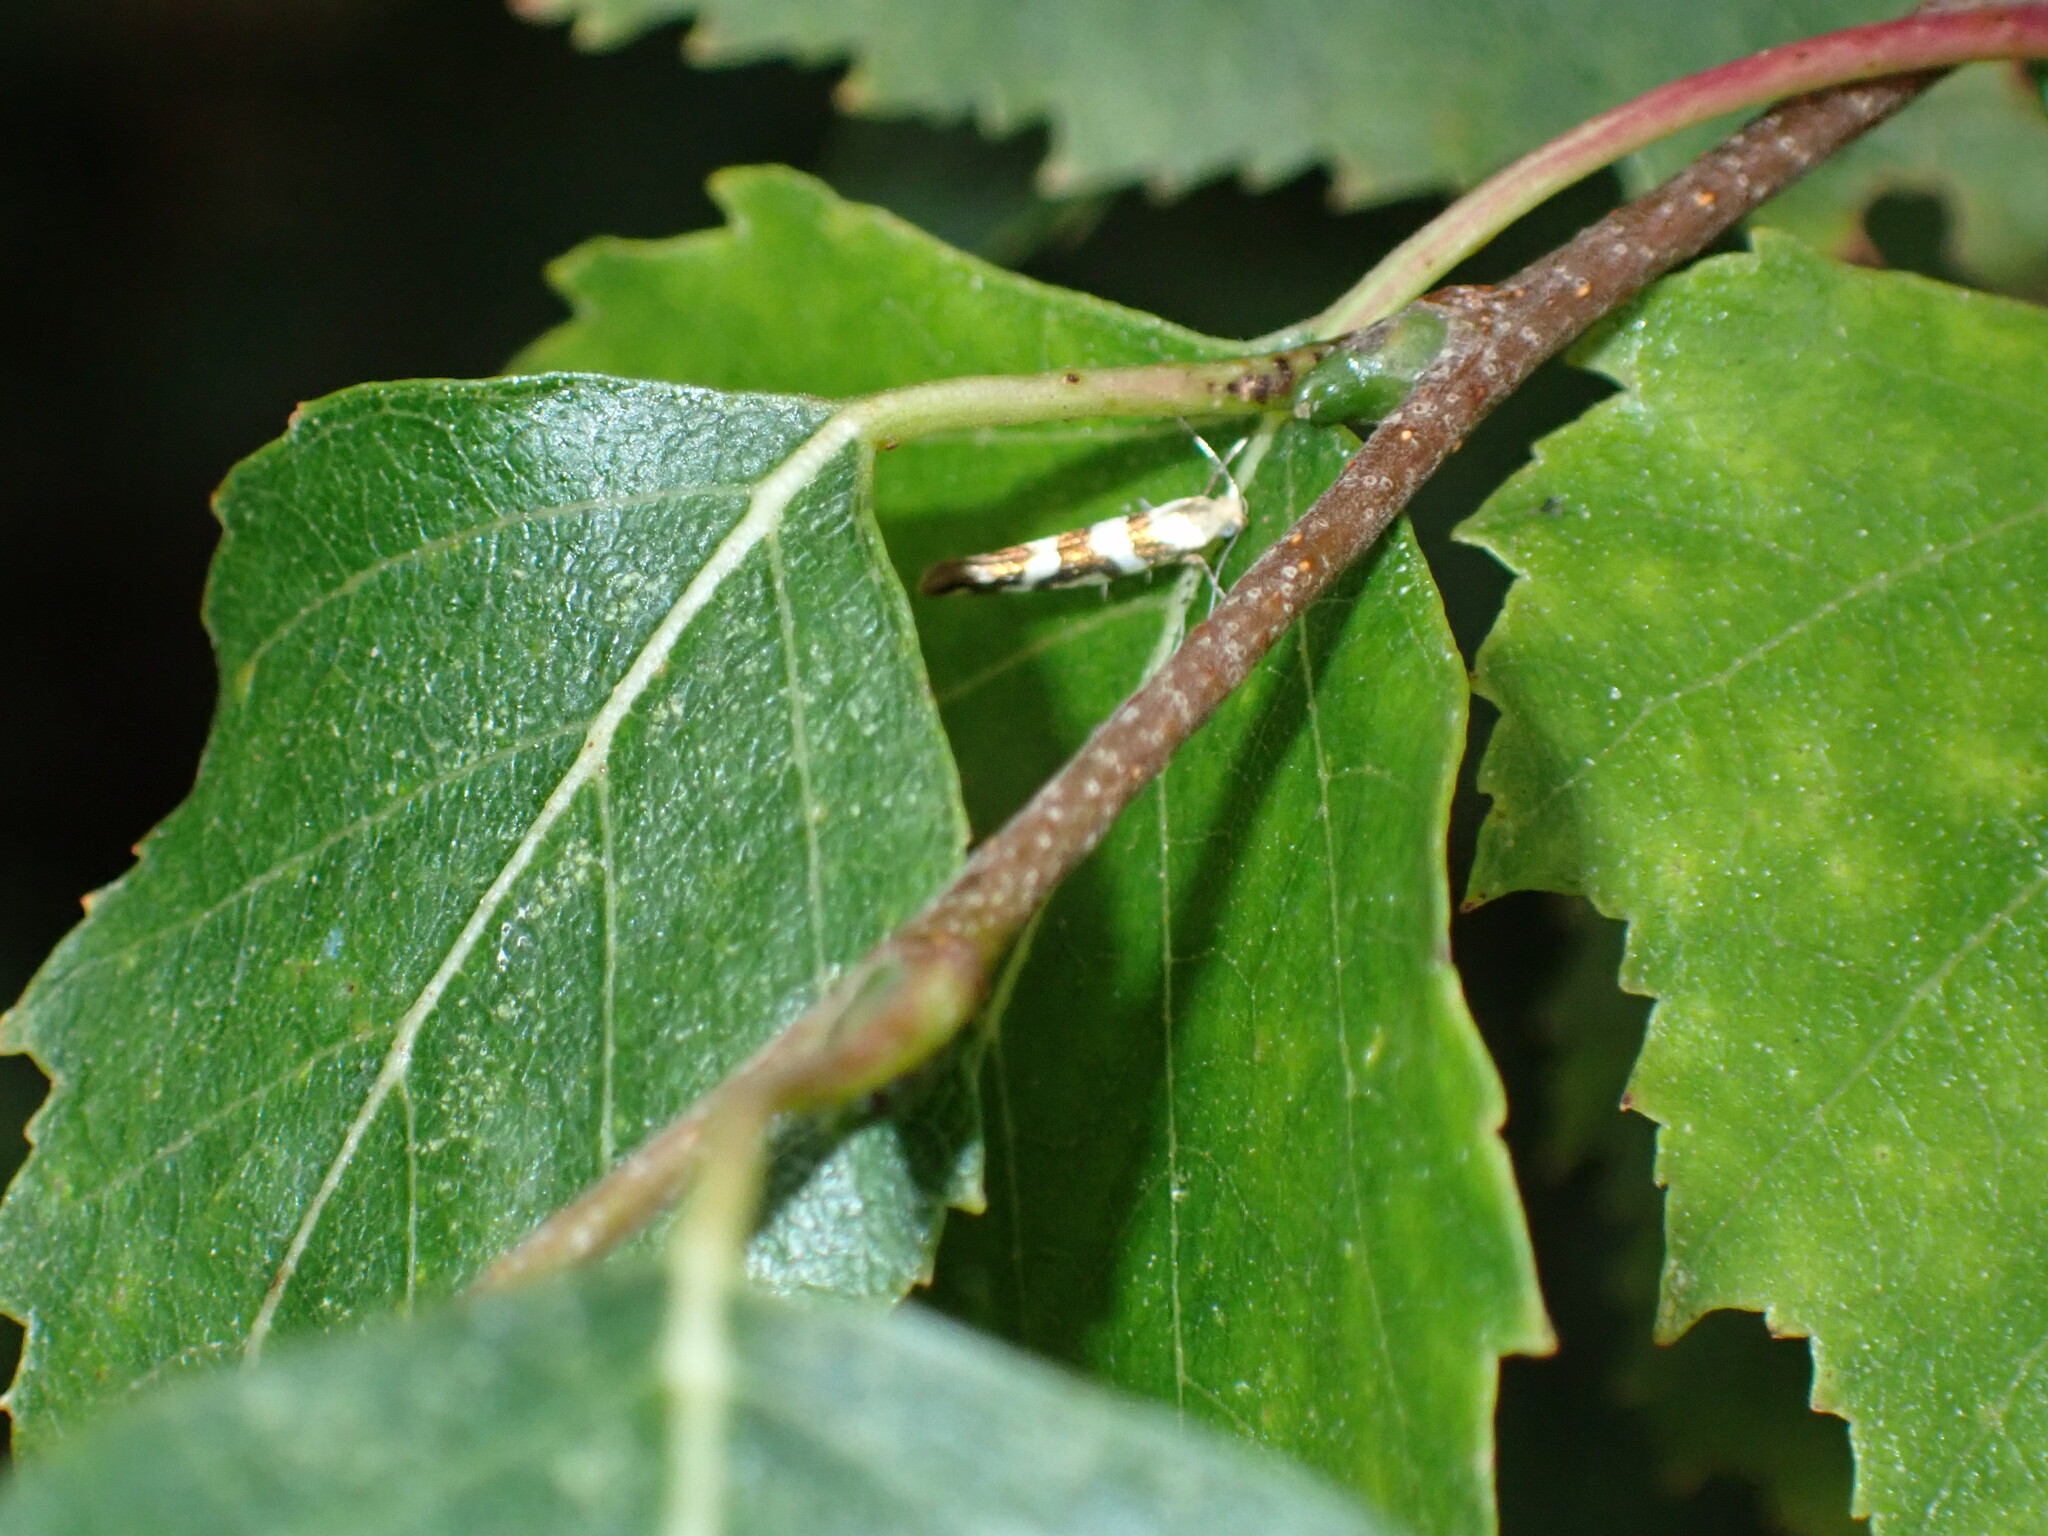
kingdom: Animalia
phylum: Arthropoda
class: Insecta
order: Lepidoptera
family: Argyresthiidae
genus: Argyresthia
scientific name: Argyresthia goedartella
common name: Golden argent
